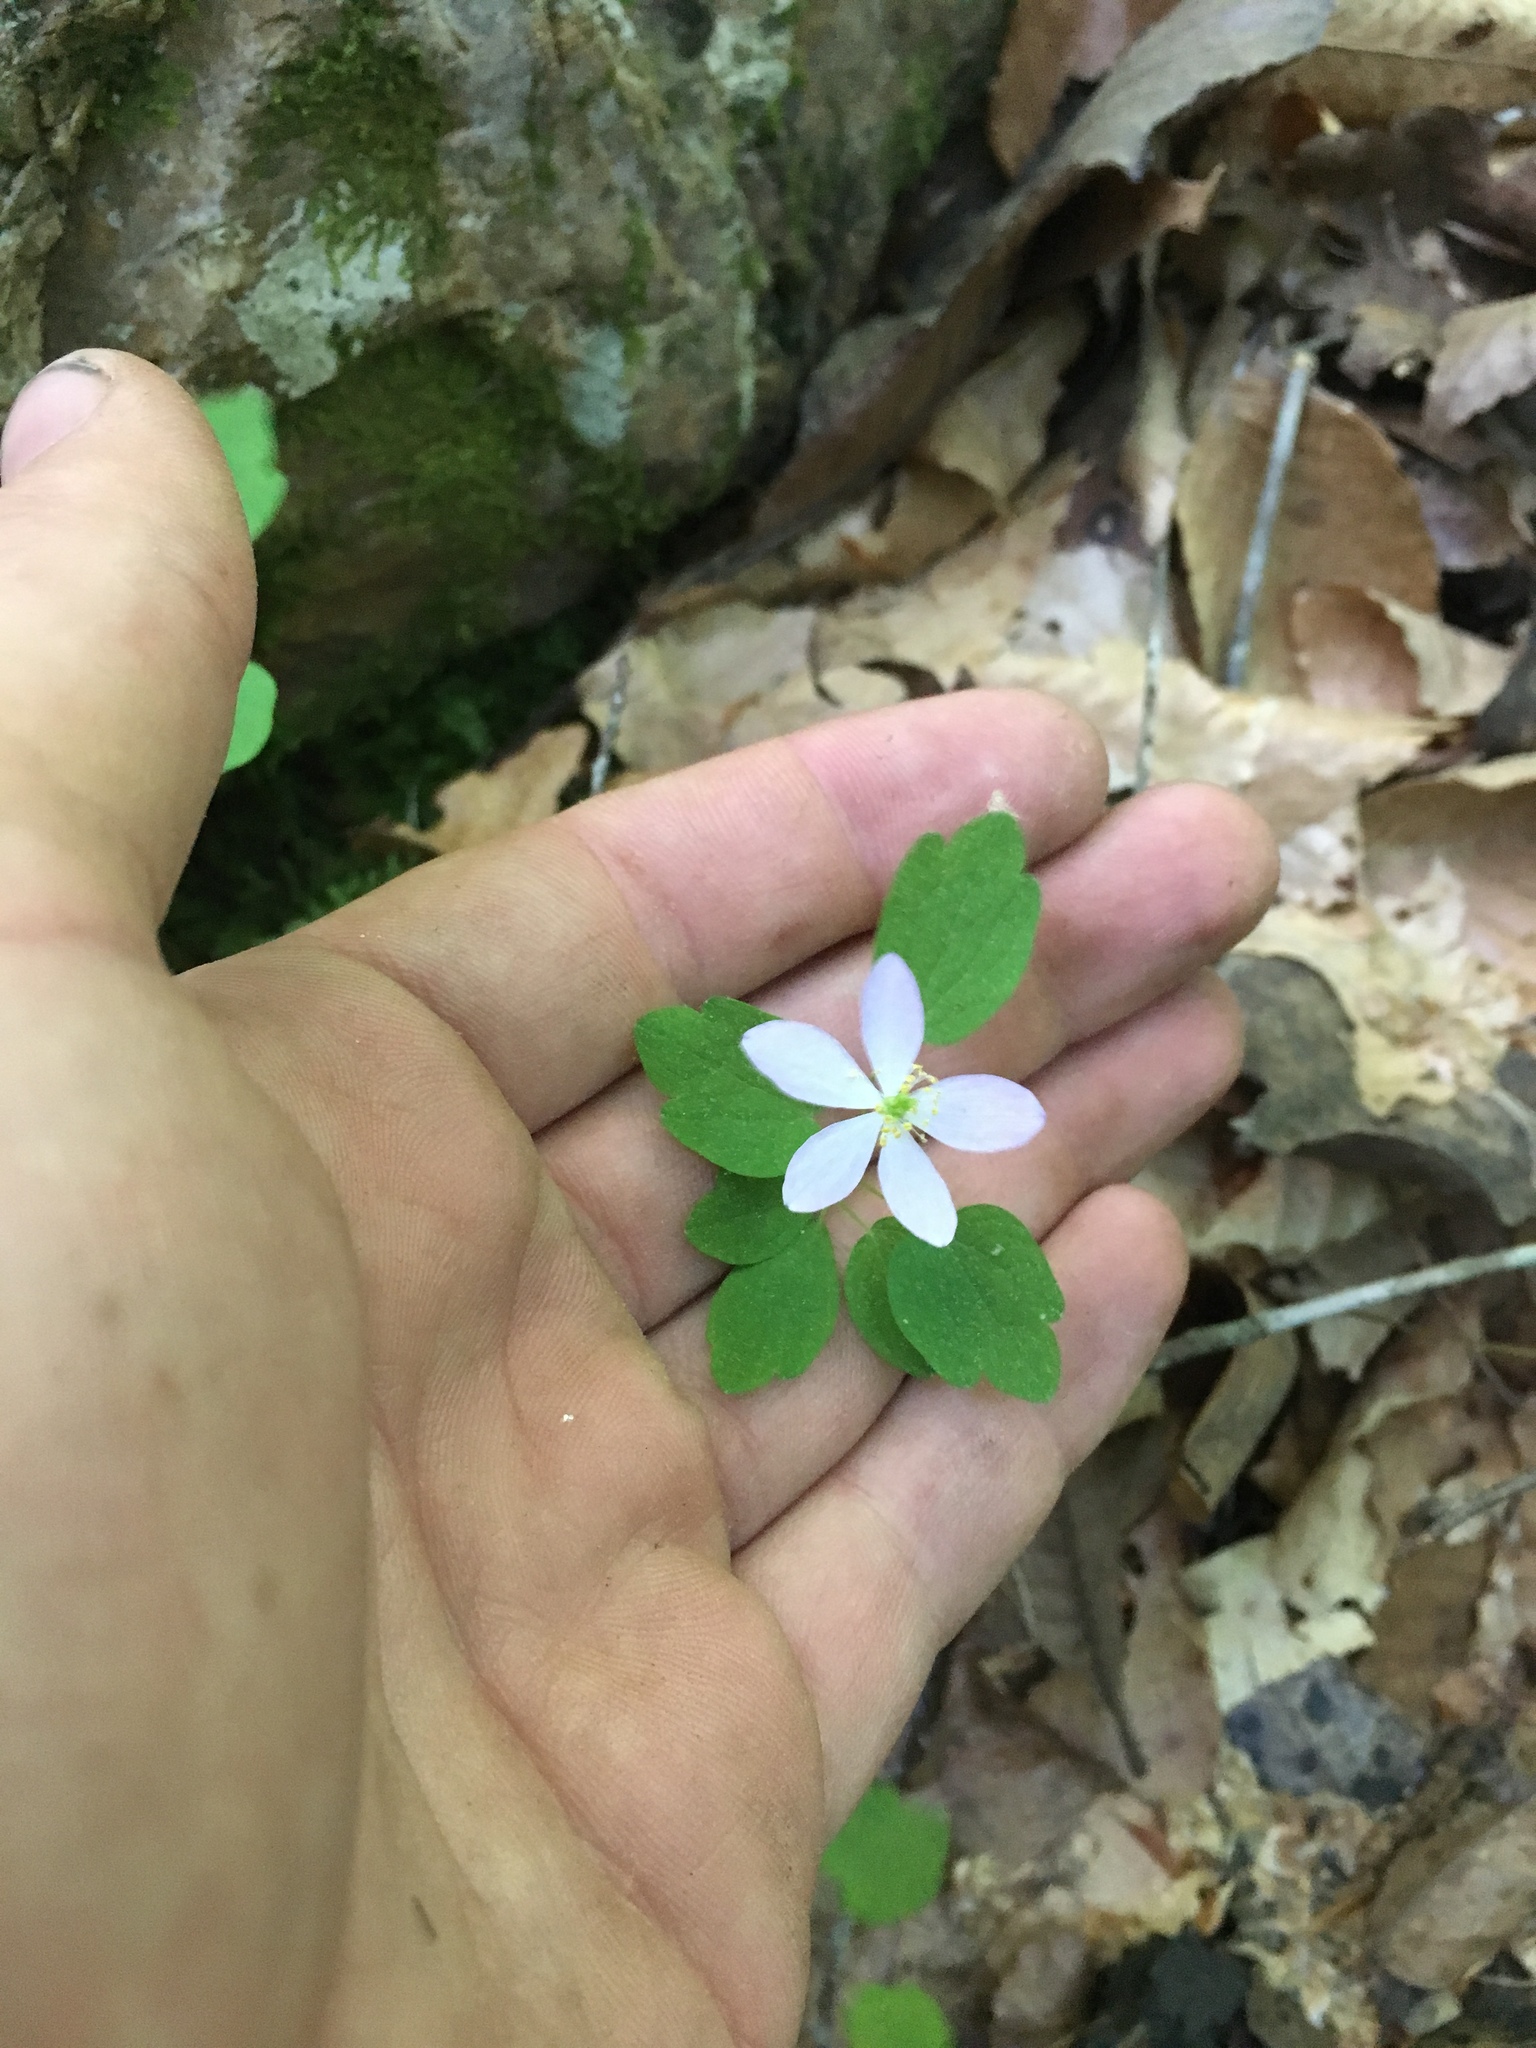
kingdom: Plantae
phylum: Tracheophyta
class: Magnoliopsida
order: Ranunculales
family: Ranunculaceae
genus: Thalictrum
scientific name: Thalictrum thalictroides
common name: Rue-anemone
